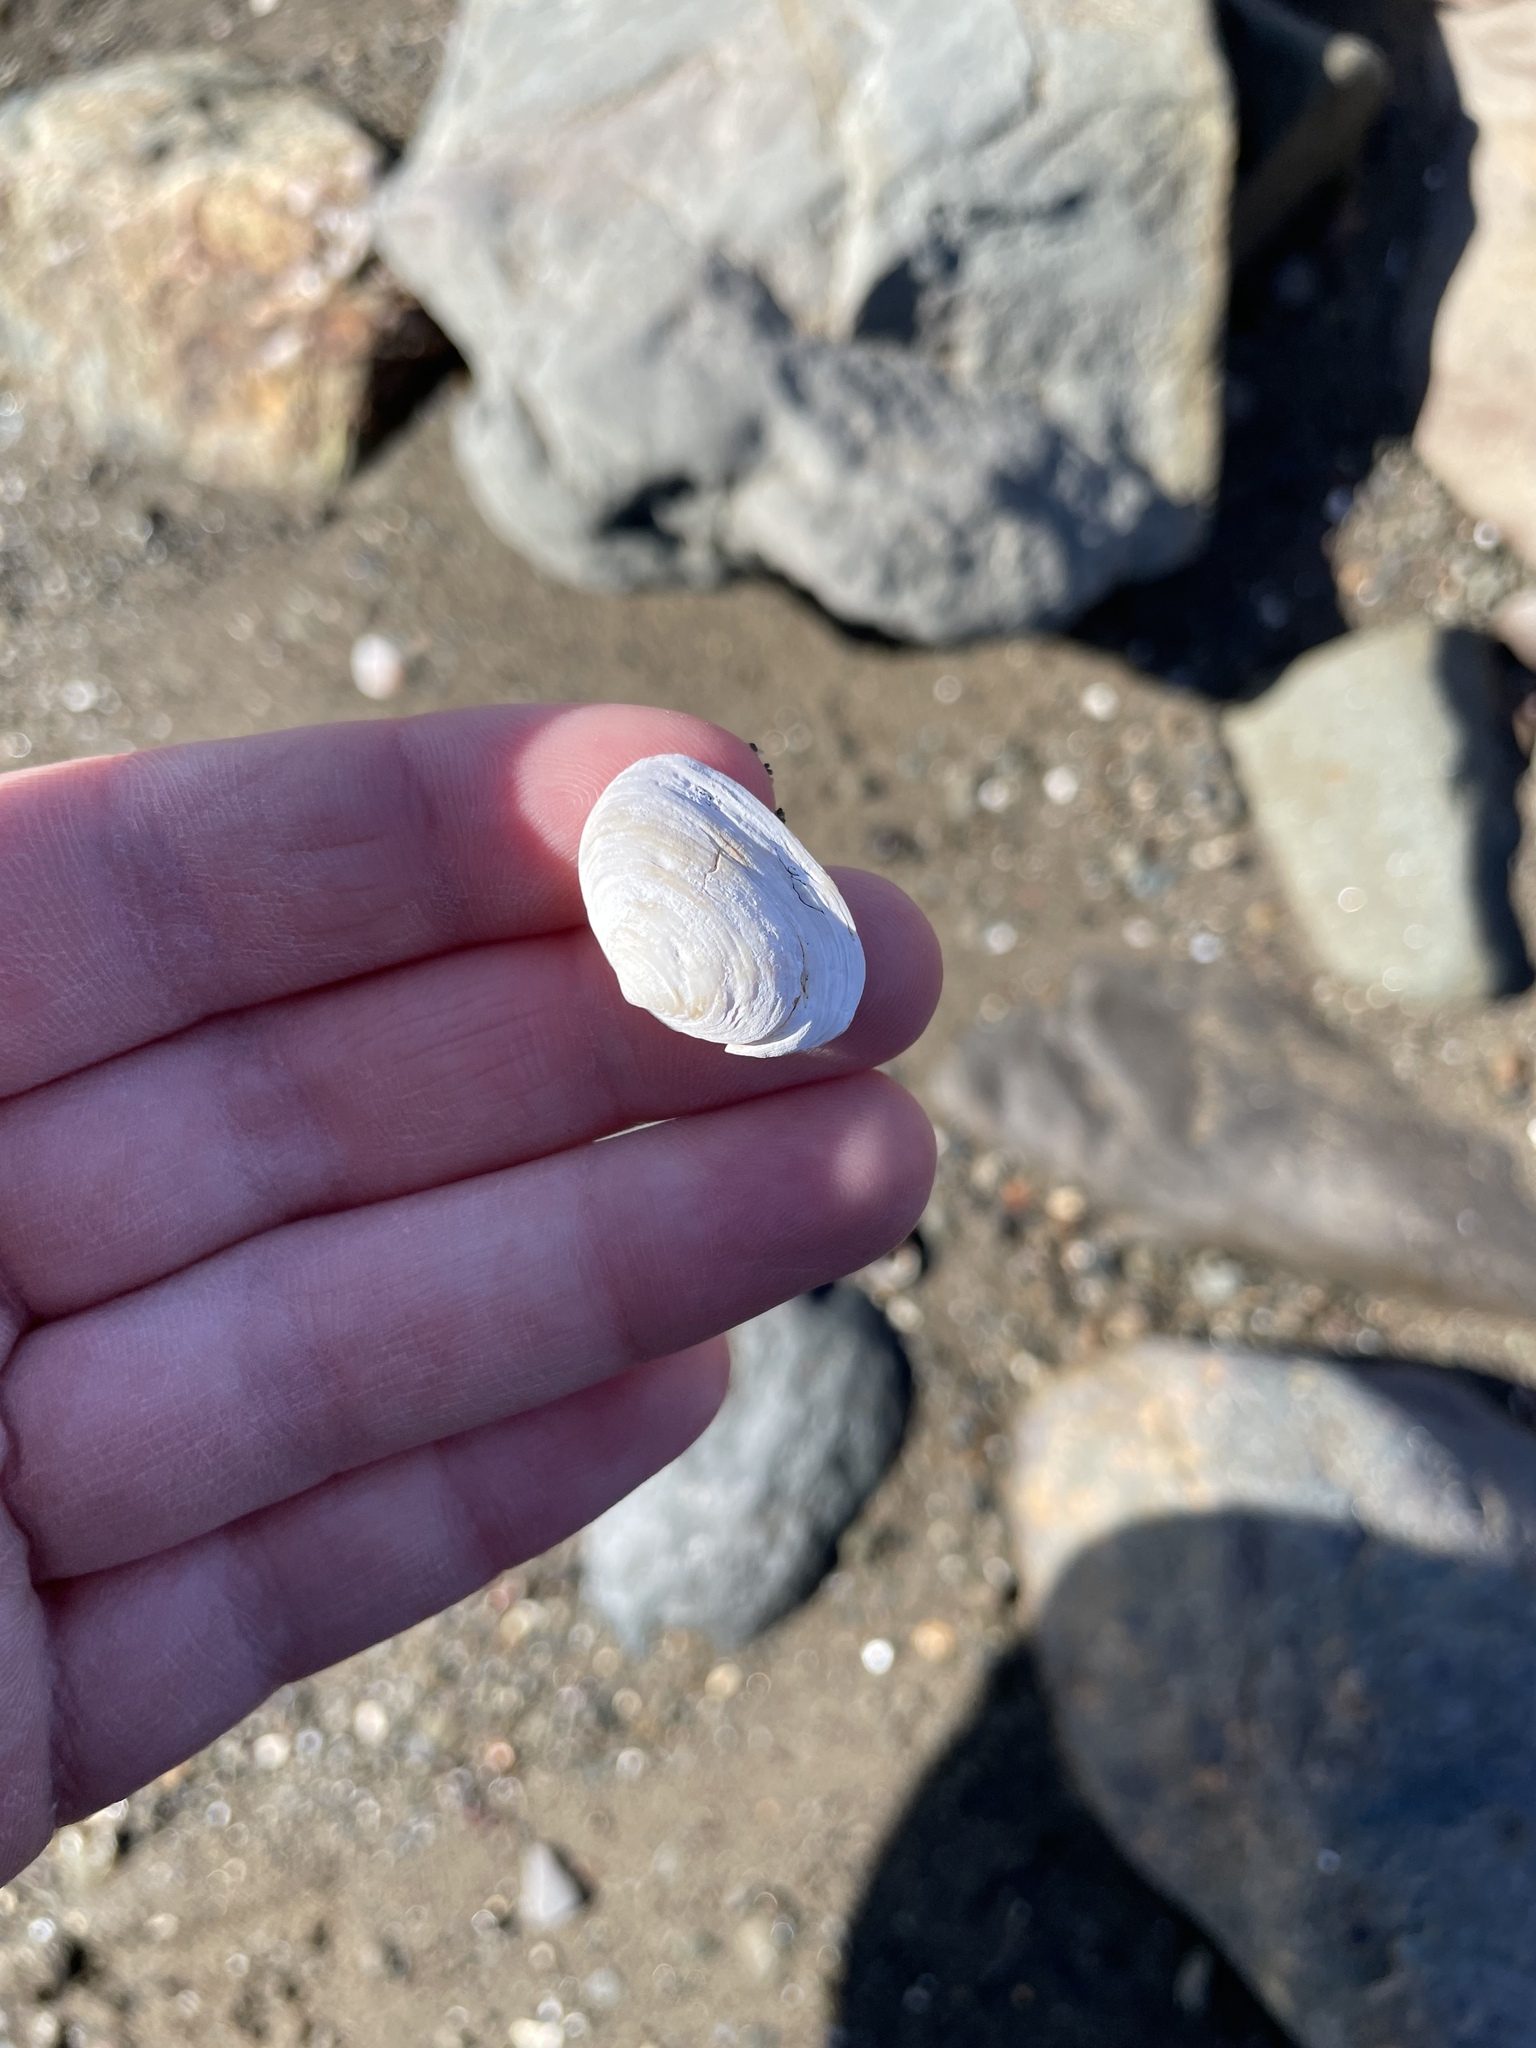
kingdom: Animalia
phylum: Mollusca
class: Bivalvia
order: Myida
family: Myidae
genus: Mya
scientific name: Mya arenaria
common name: Soft-shelled clam
